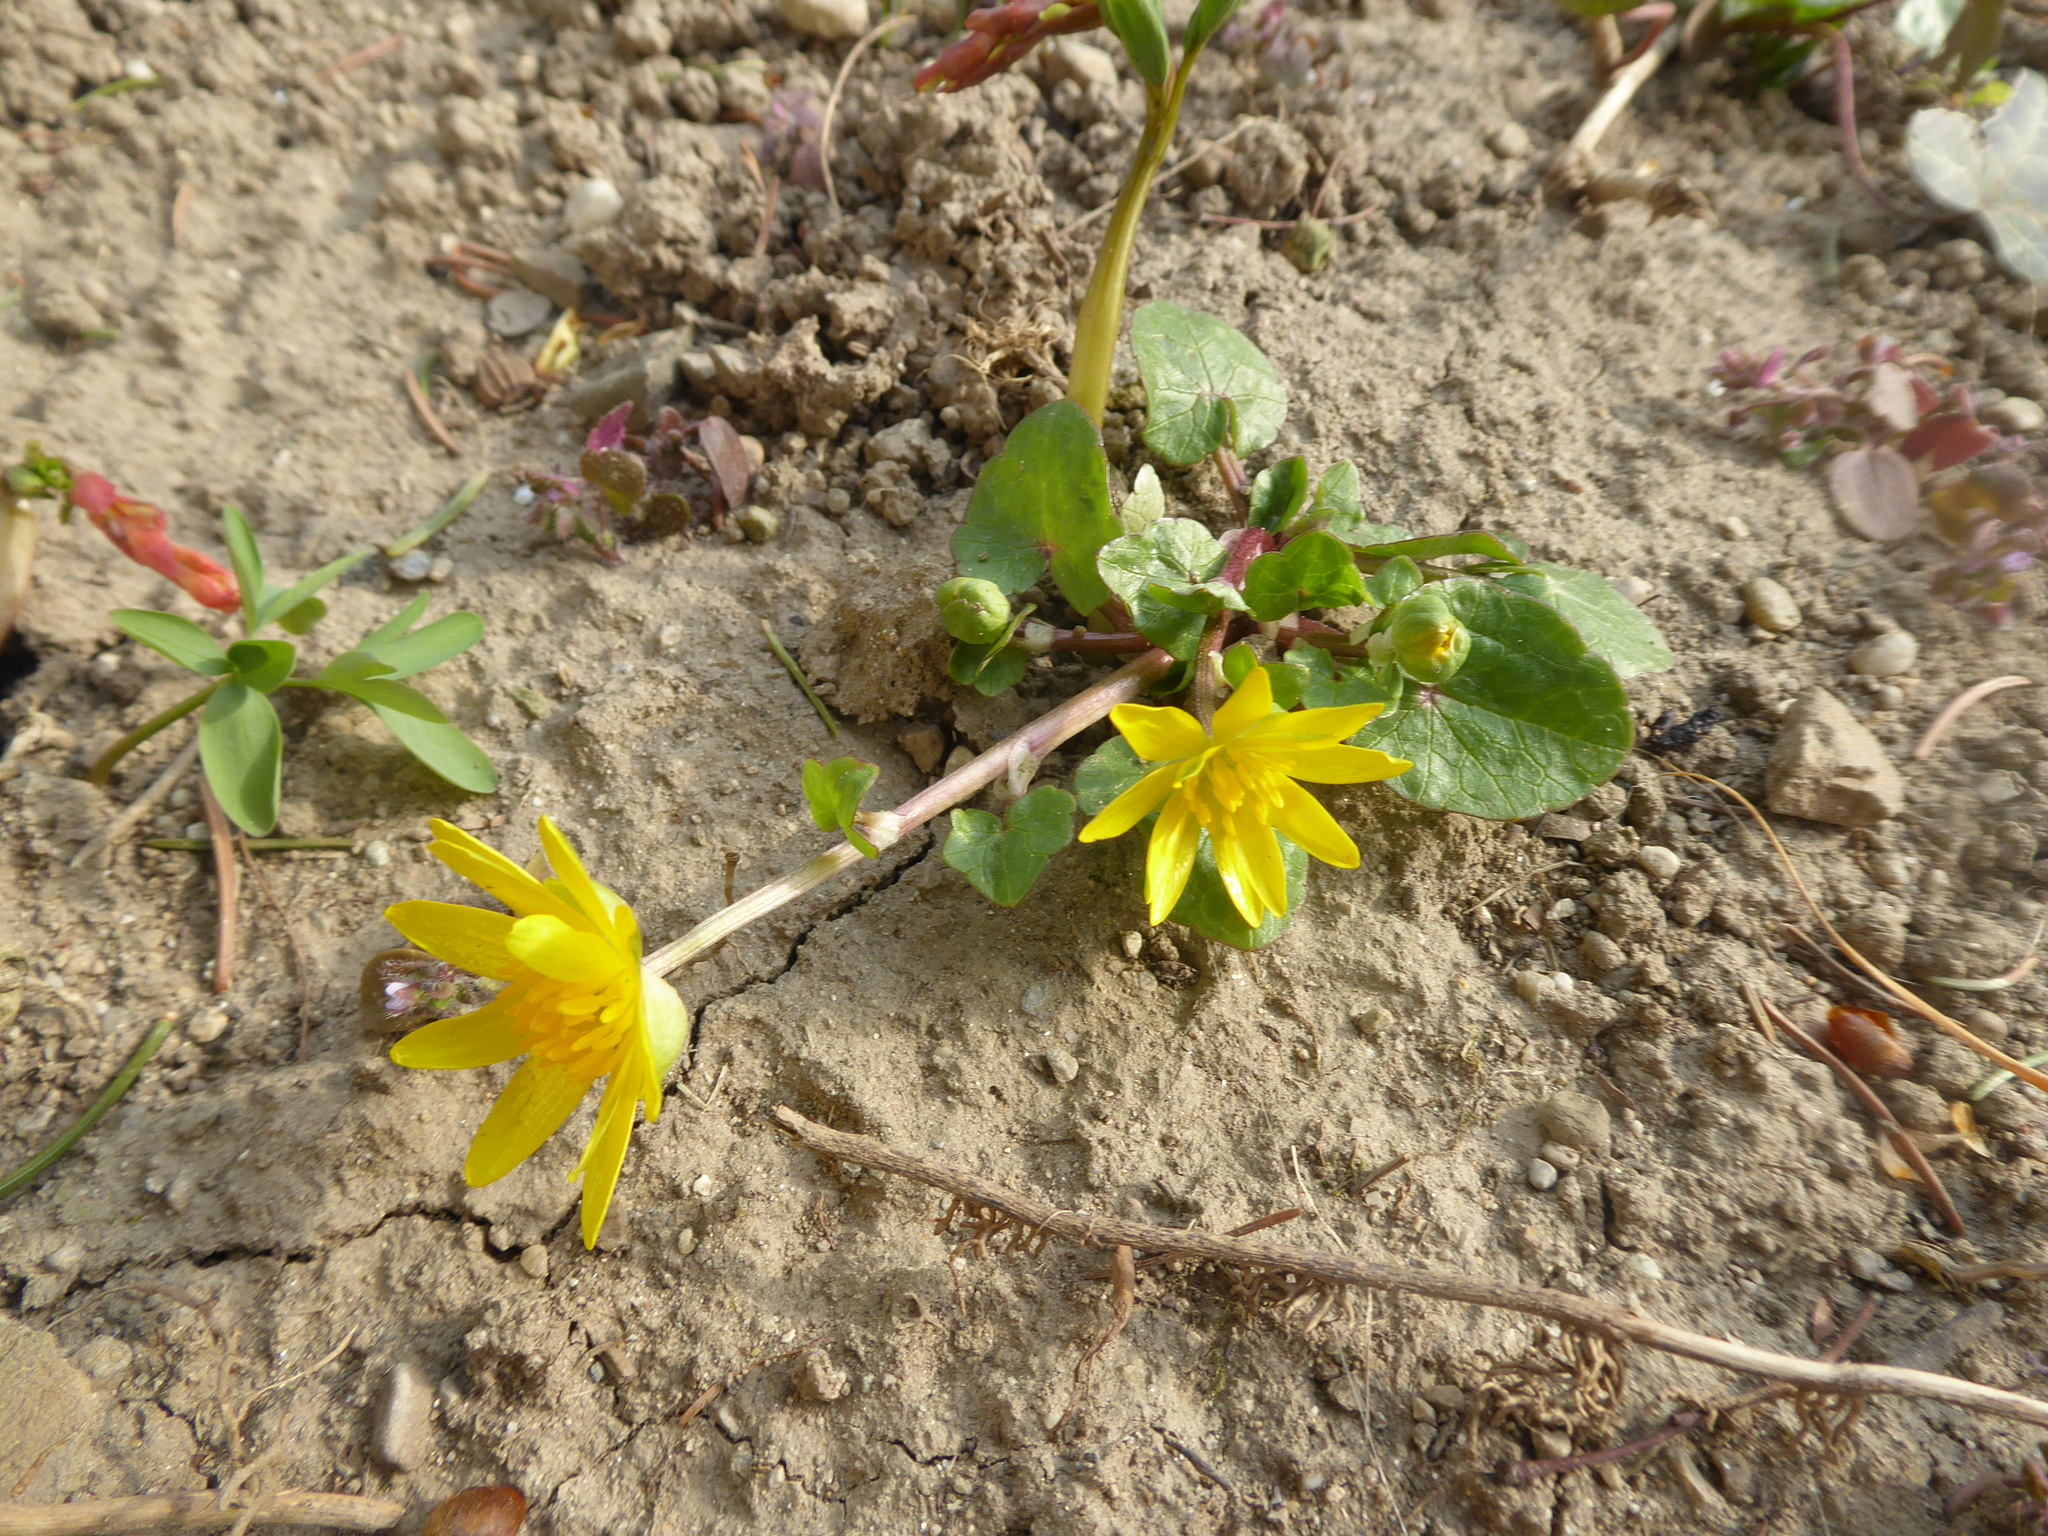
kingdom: Plantae
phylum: Tracheophyta
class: Magnoliopsida
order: Ranunculales
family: Ranunculaceae
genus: Ficaria
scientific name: Ficaria verna
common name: Lesser celandine
